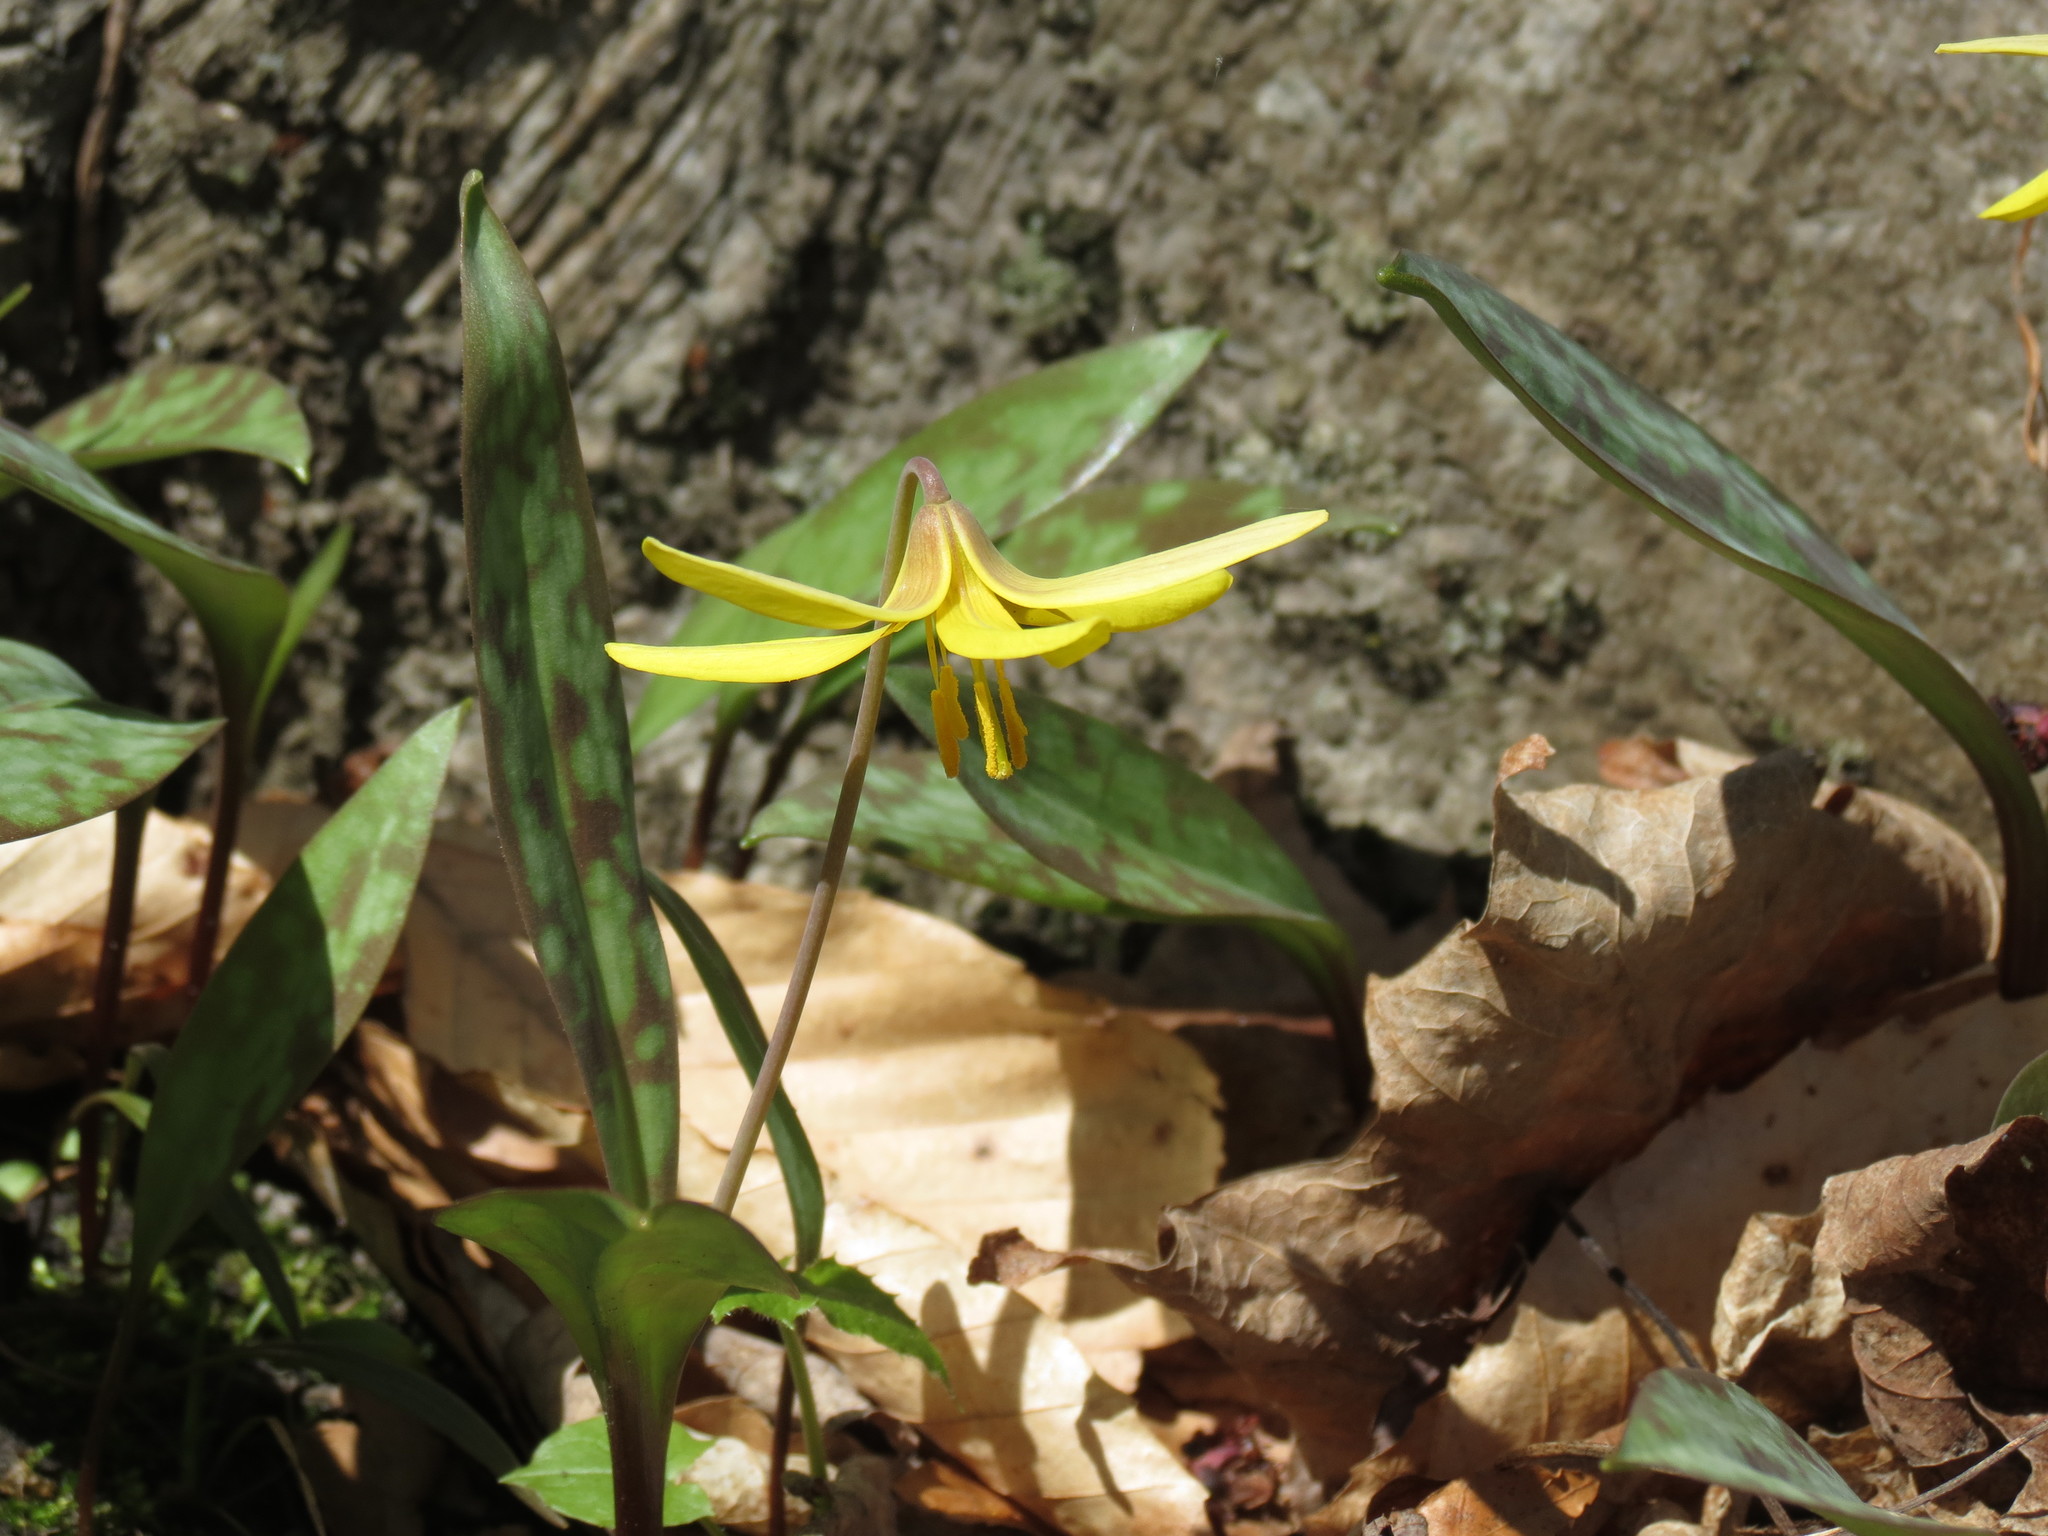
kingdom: Plantae
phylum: Tracheophyta
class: Liliopsida
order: Liliales
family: Liliaceae
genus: Erythronium
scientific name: Erythronium americanum
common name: Yellow adder's-tongue
